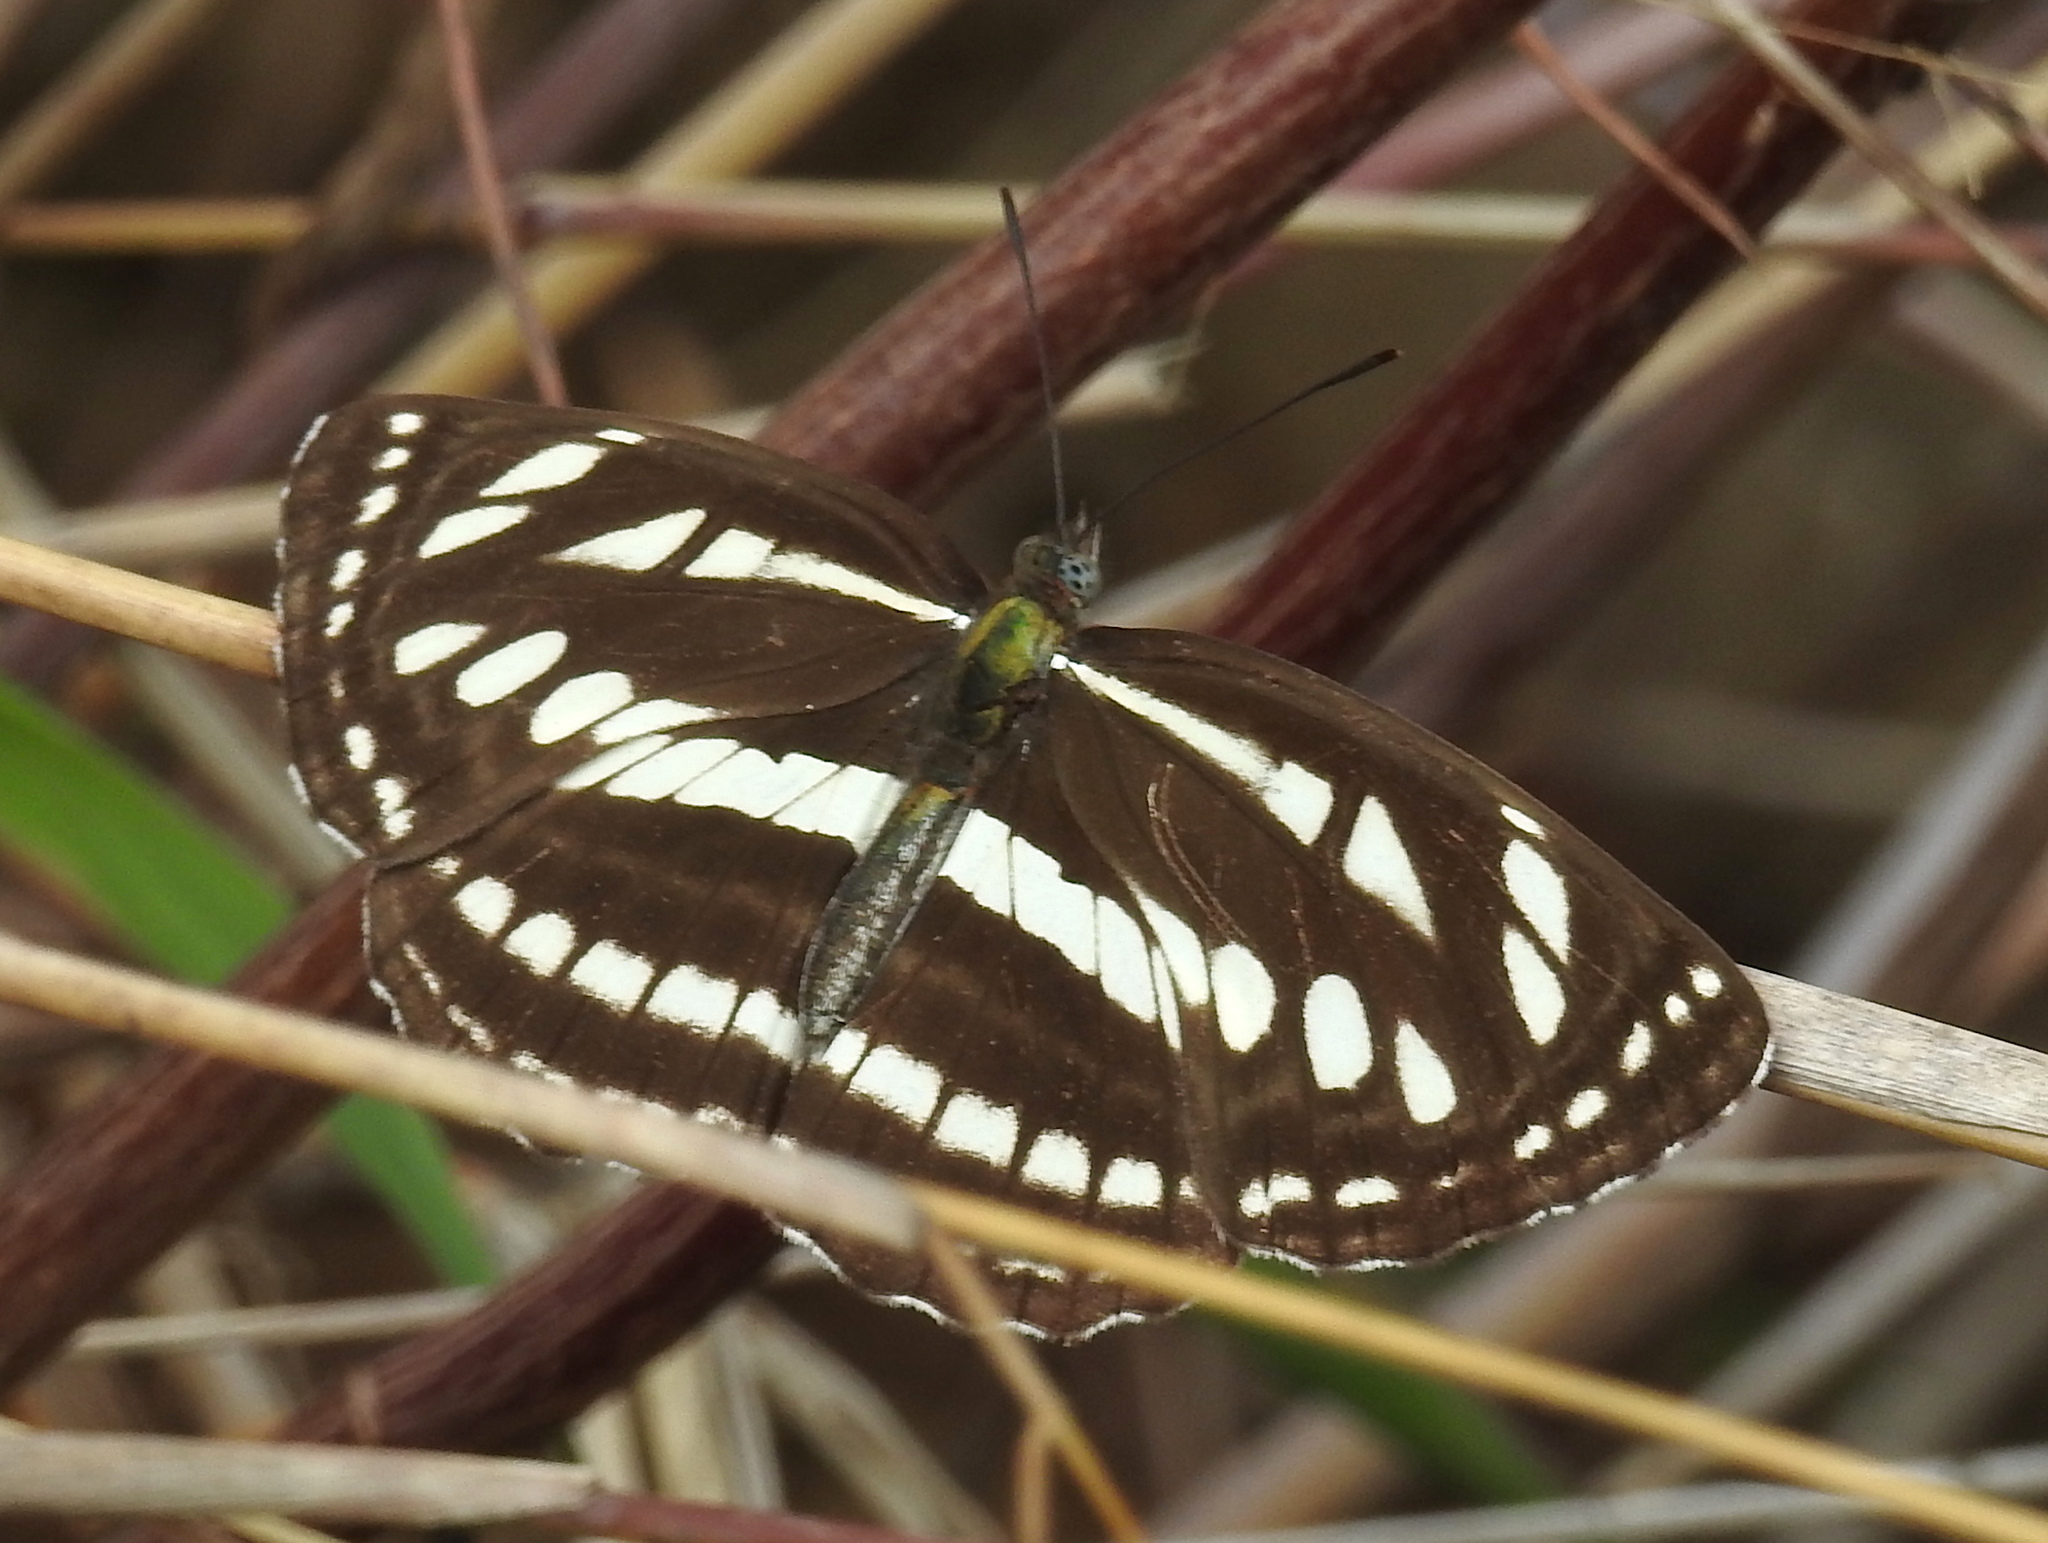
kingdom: Animalia
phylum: Arthropoda
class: Insecta
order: Lepidoptera
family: Nymphalidae
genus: Neptis
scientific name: Neptis hylas
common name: Common sailer
